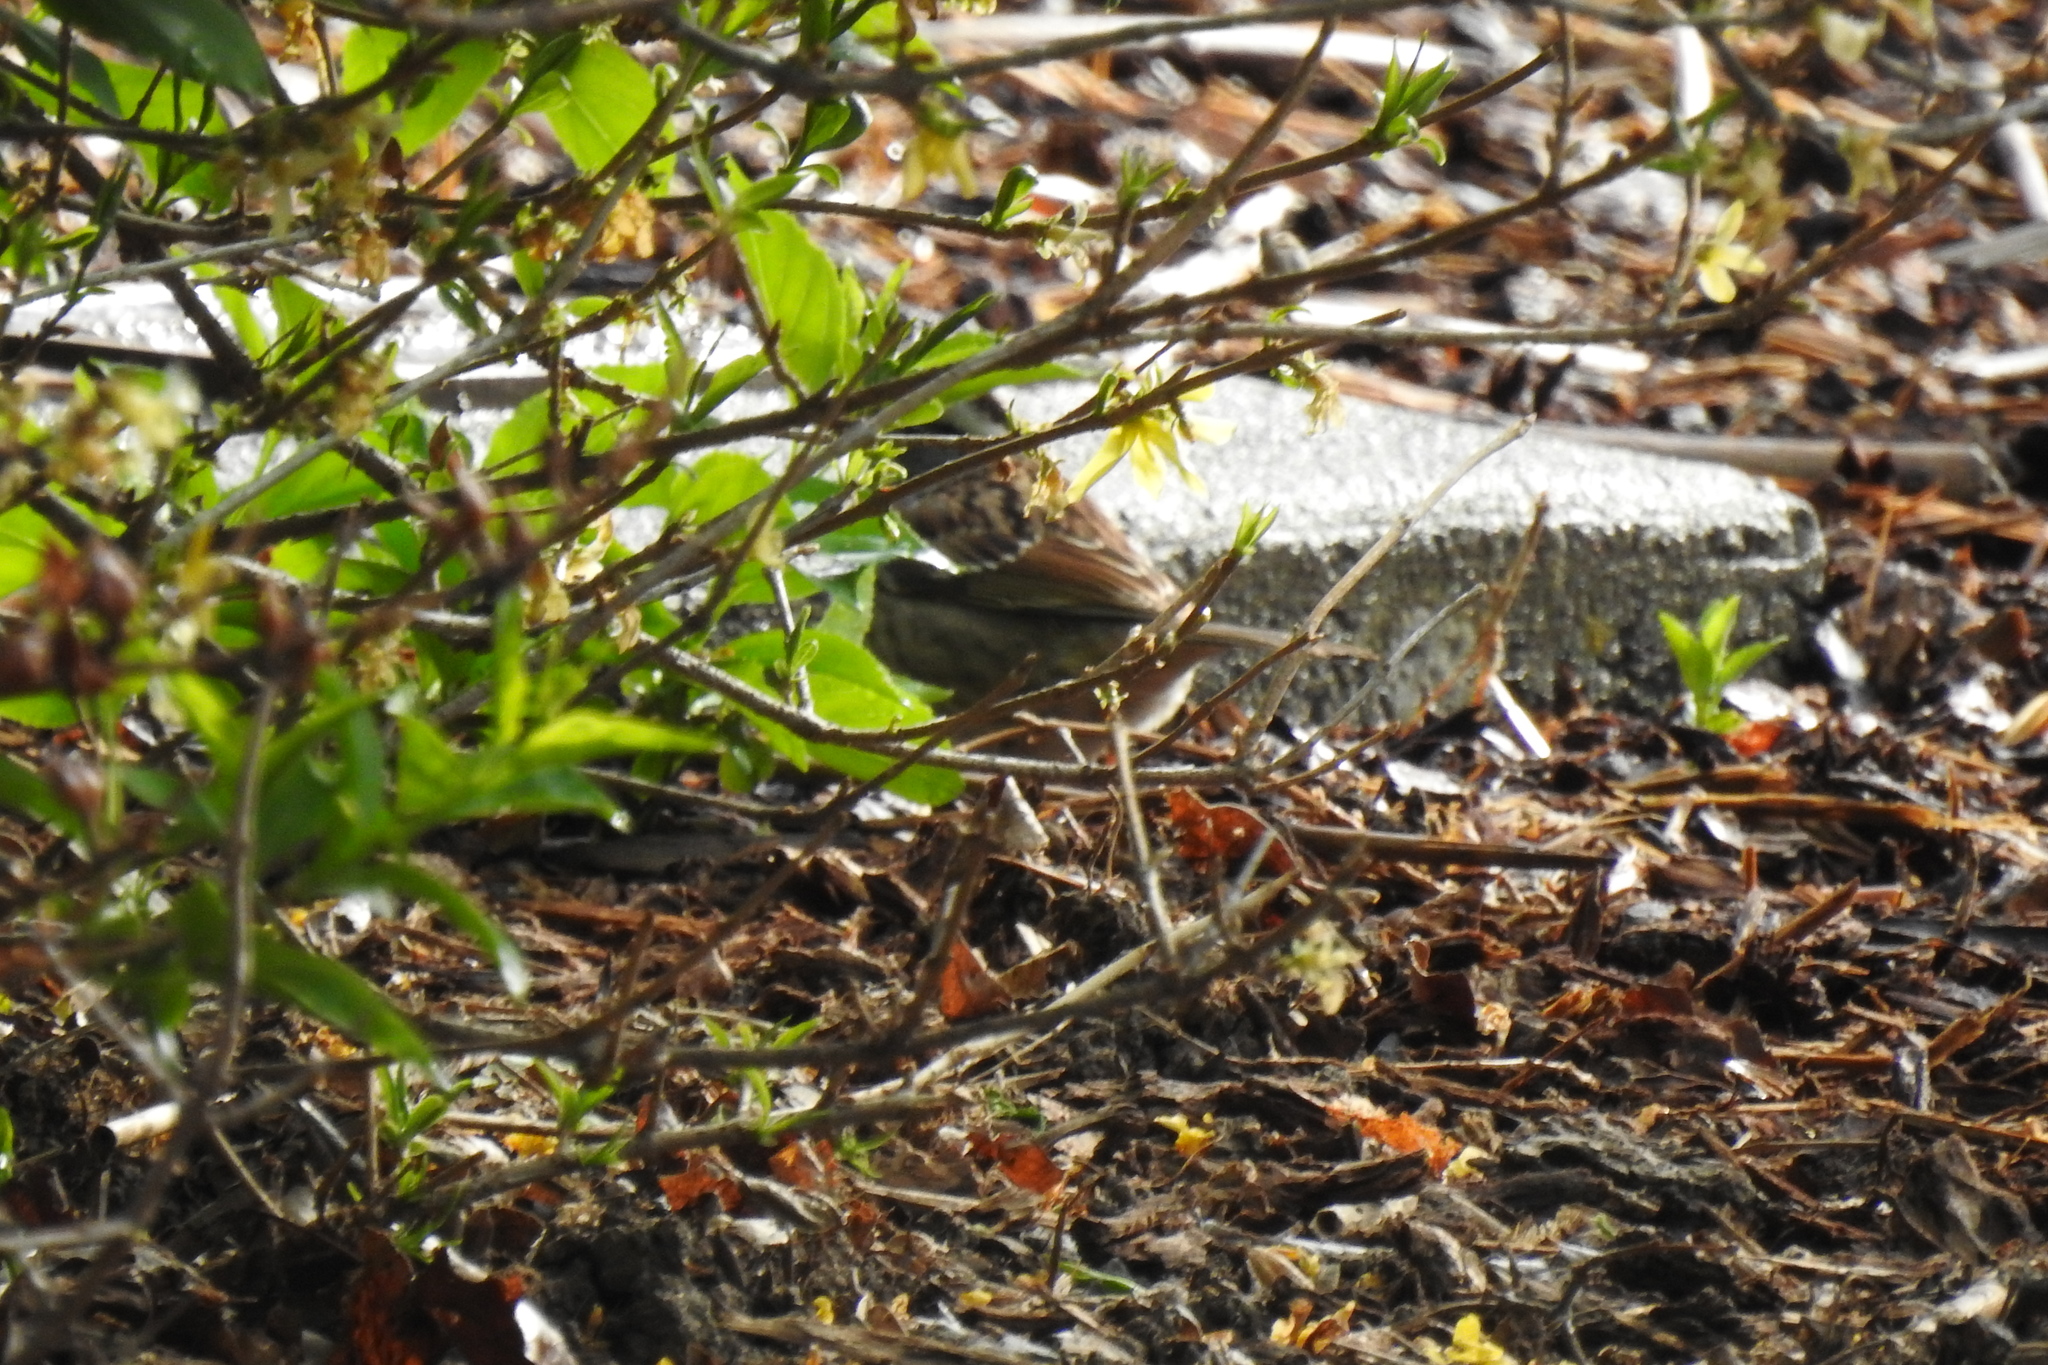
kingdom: Animalia
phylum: Chordata
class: Aves
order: Passeriformes
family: Passerellidae
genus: Zonotrichia
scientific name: Zonotrichia albicollis
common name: White-throated sparrow
